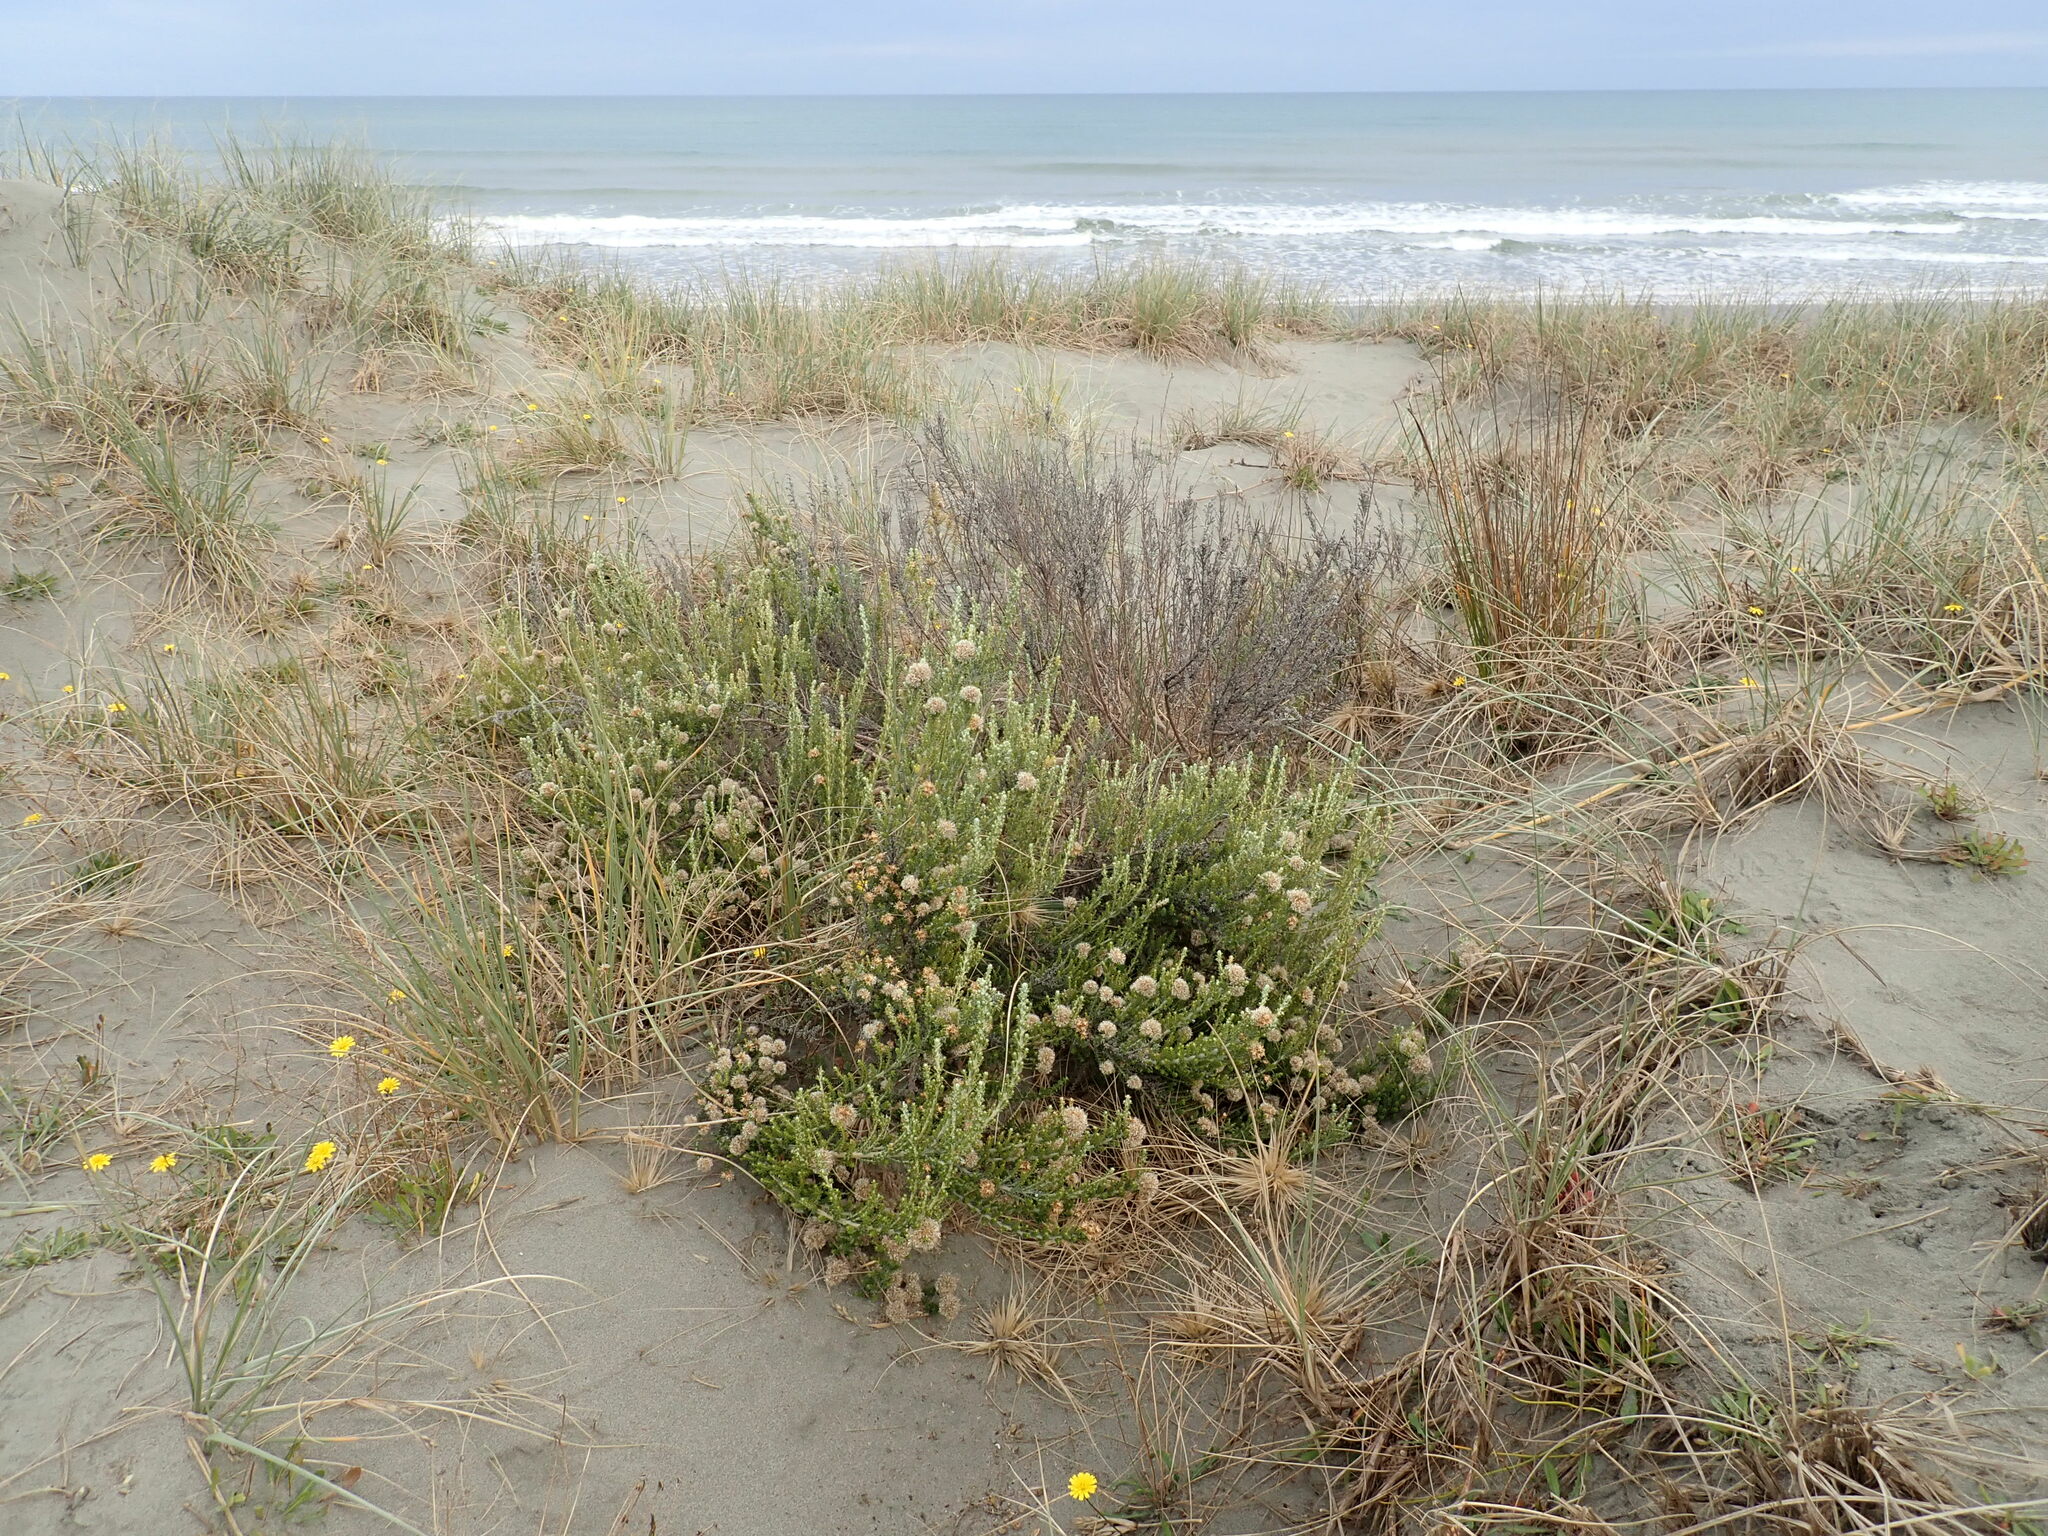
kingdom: Plantae
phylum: Tracheophyta
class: Magnoliopsida
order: Asterales
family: Asteraceae
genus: Ozothamnus
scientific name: Ozothamnus leptophyllus
